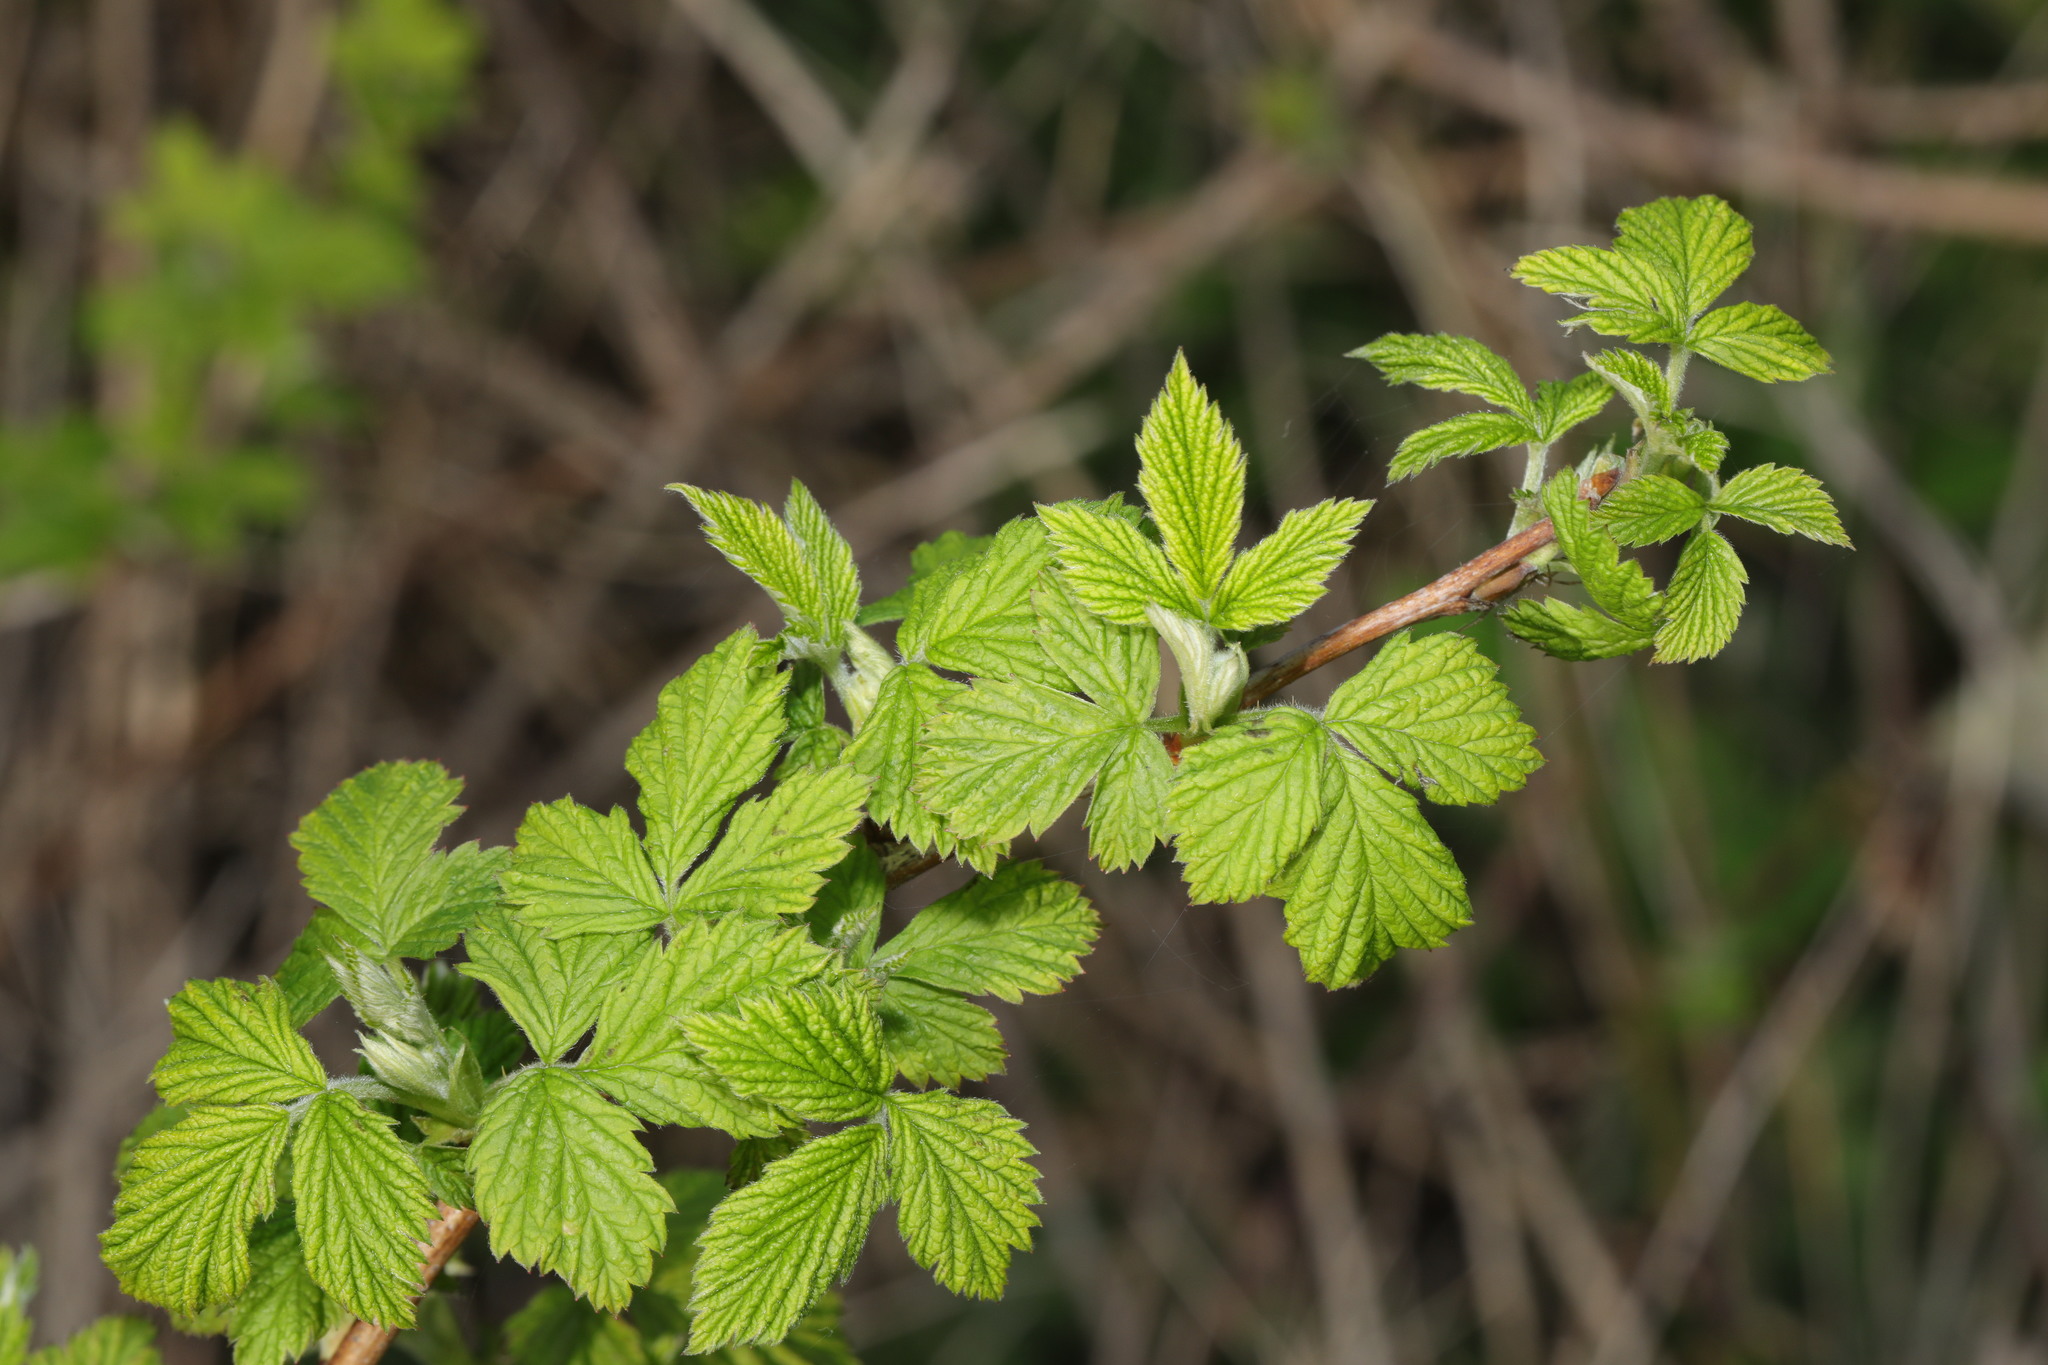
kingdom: Plantae
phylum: Tracheophyta
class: Magnoliopsida
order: Rosales
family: Rosaceae
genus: Rubus
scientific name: Rubus idaeus
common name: Raspberry
